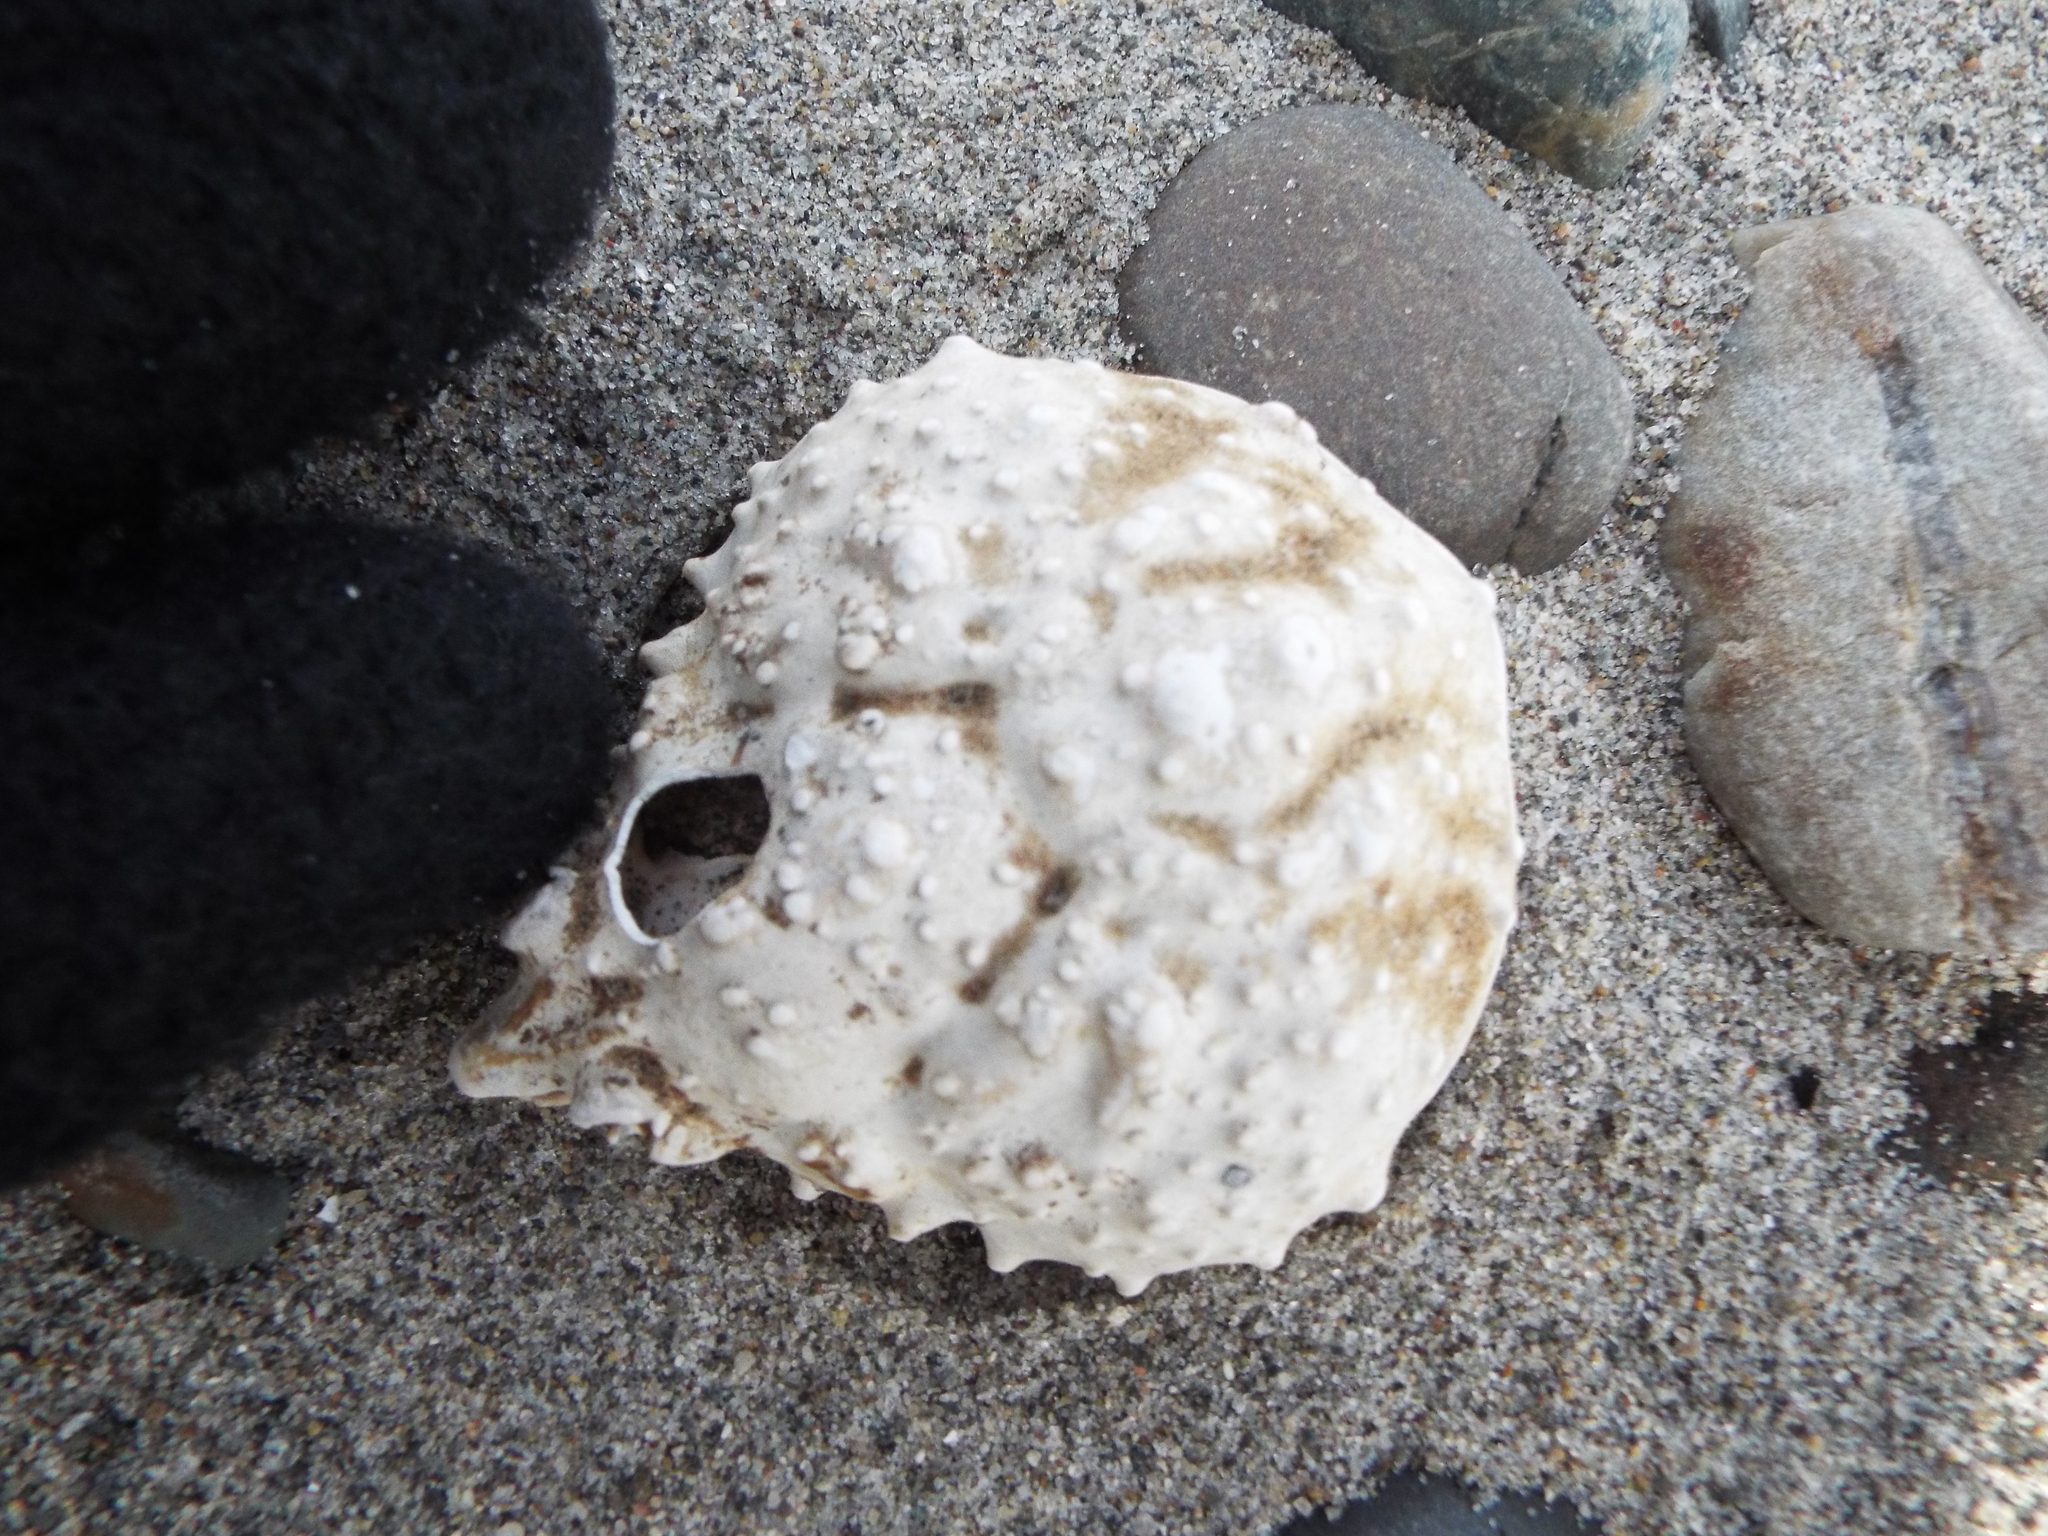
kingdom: Animalia
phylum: Arthropoda
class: Malacostraca
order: Decapoda
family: Epialtidae
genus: Libinia
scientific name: Libinia emarginata
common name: Common spider crab
